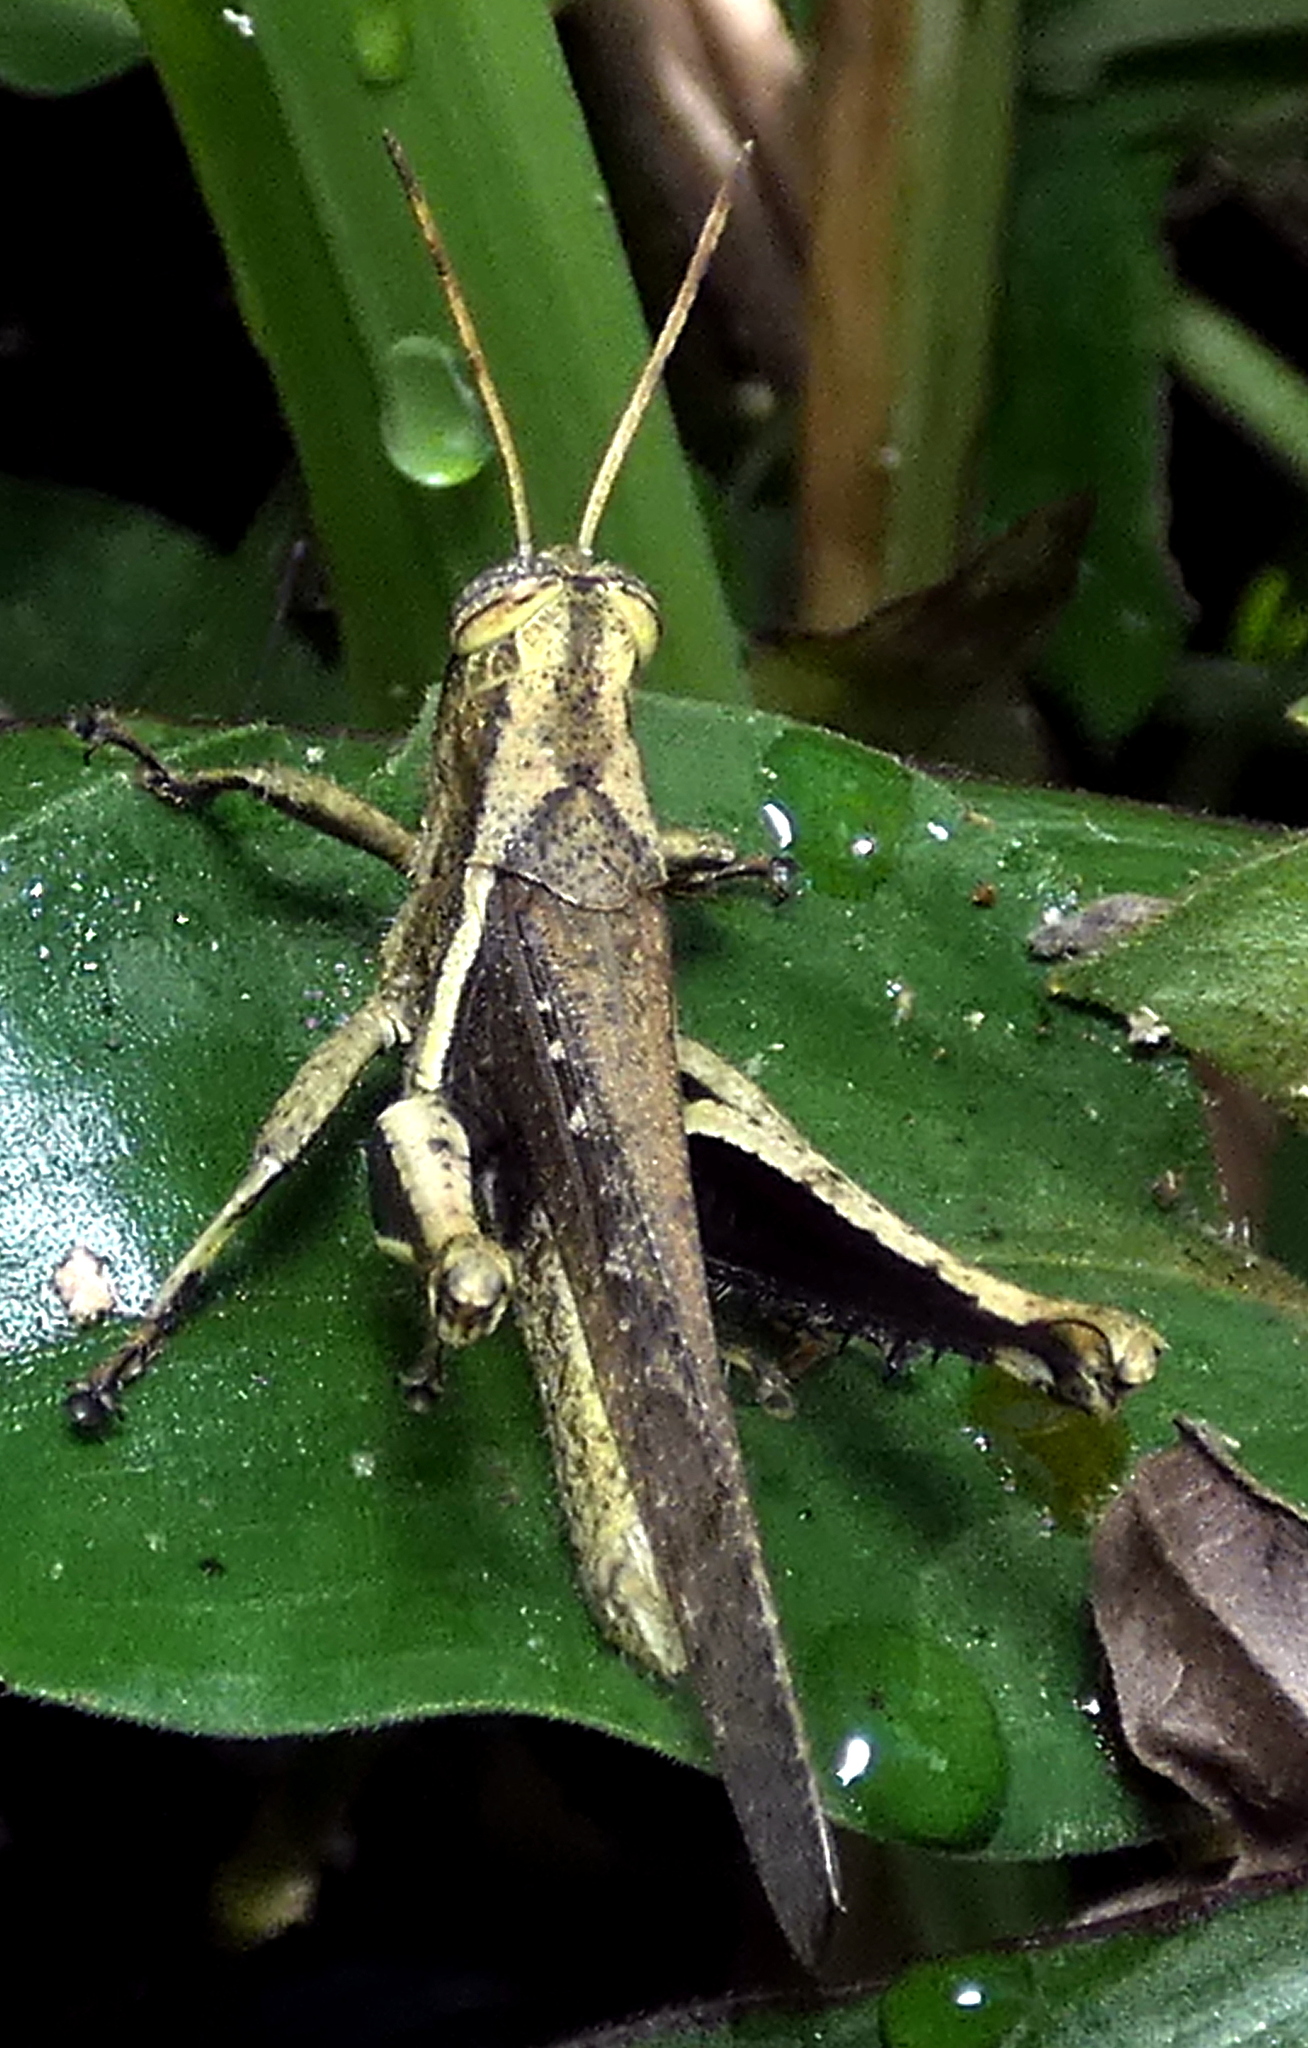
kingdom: Animalia
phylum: Arthropoda
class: Insecta
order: Orthoptera
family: Acrididae
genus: Abracris
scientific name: Abracris flavolineata
